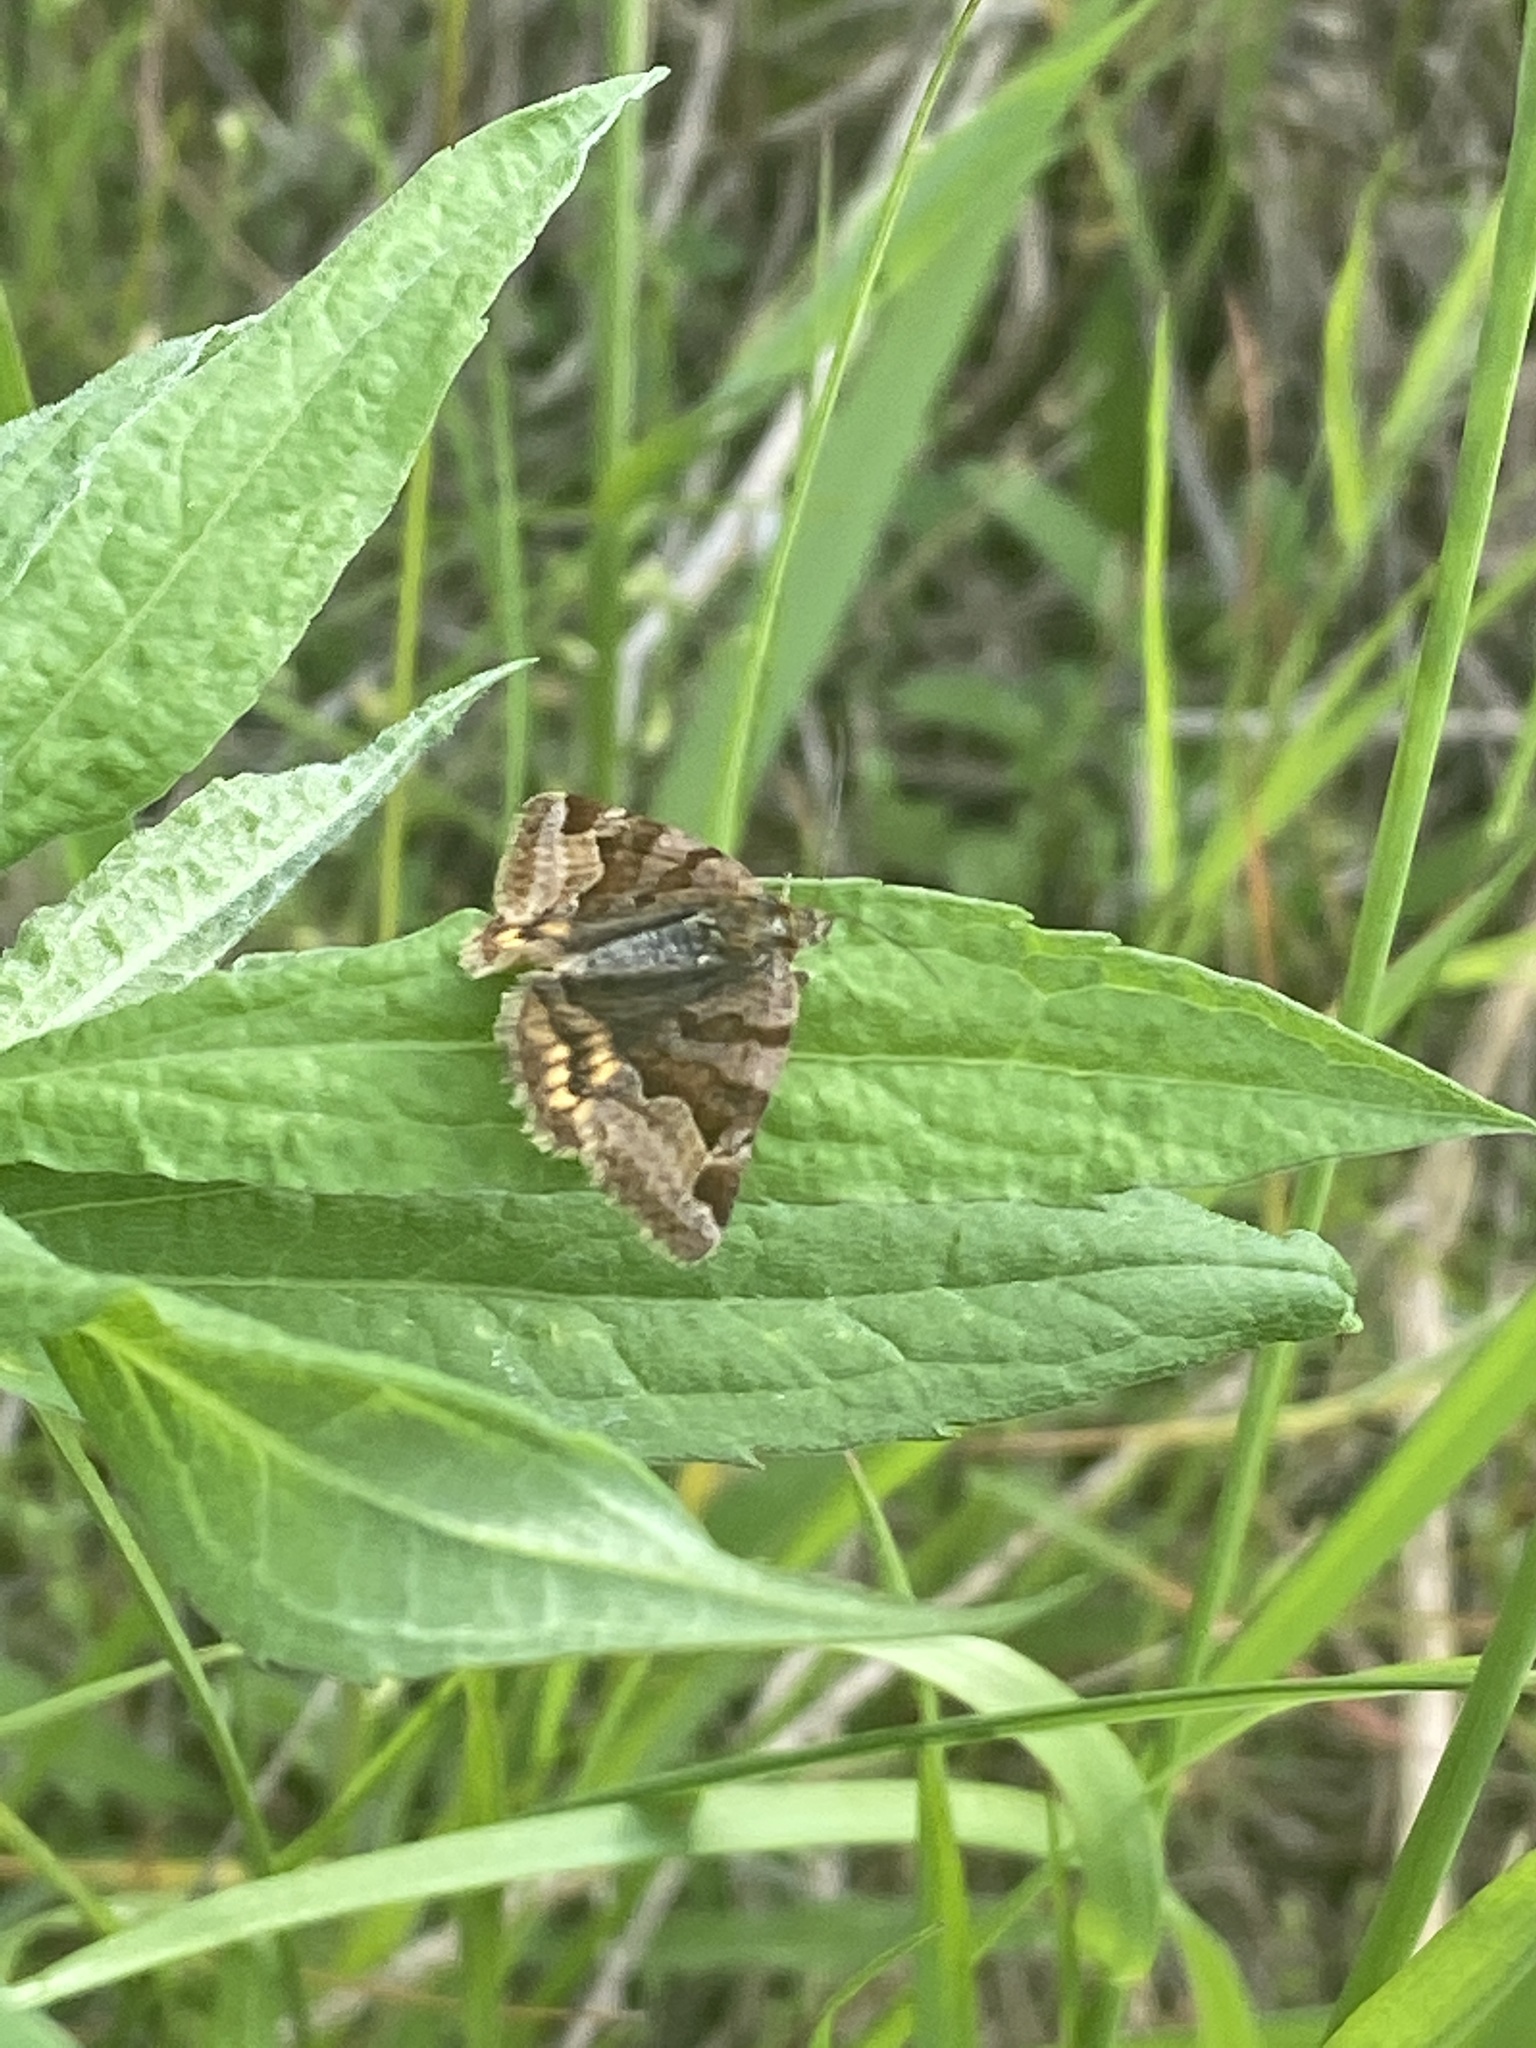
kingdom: Animalia
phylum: Arthropoda
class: Insecta
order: Lepidoptera
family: Erebidae
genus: Euclidia
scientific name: Euclidia glyphica
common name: Burnet companion
